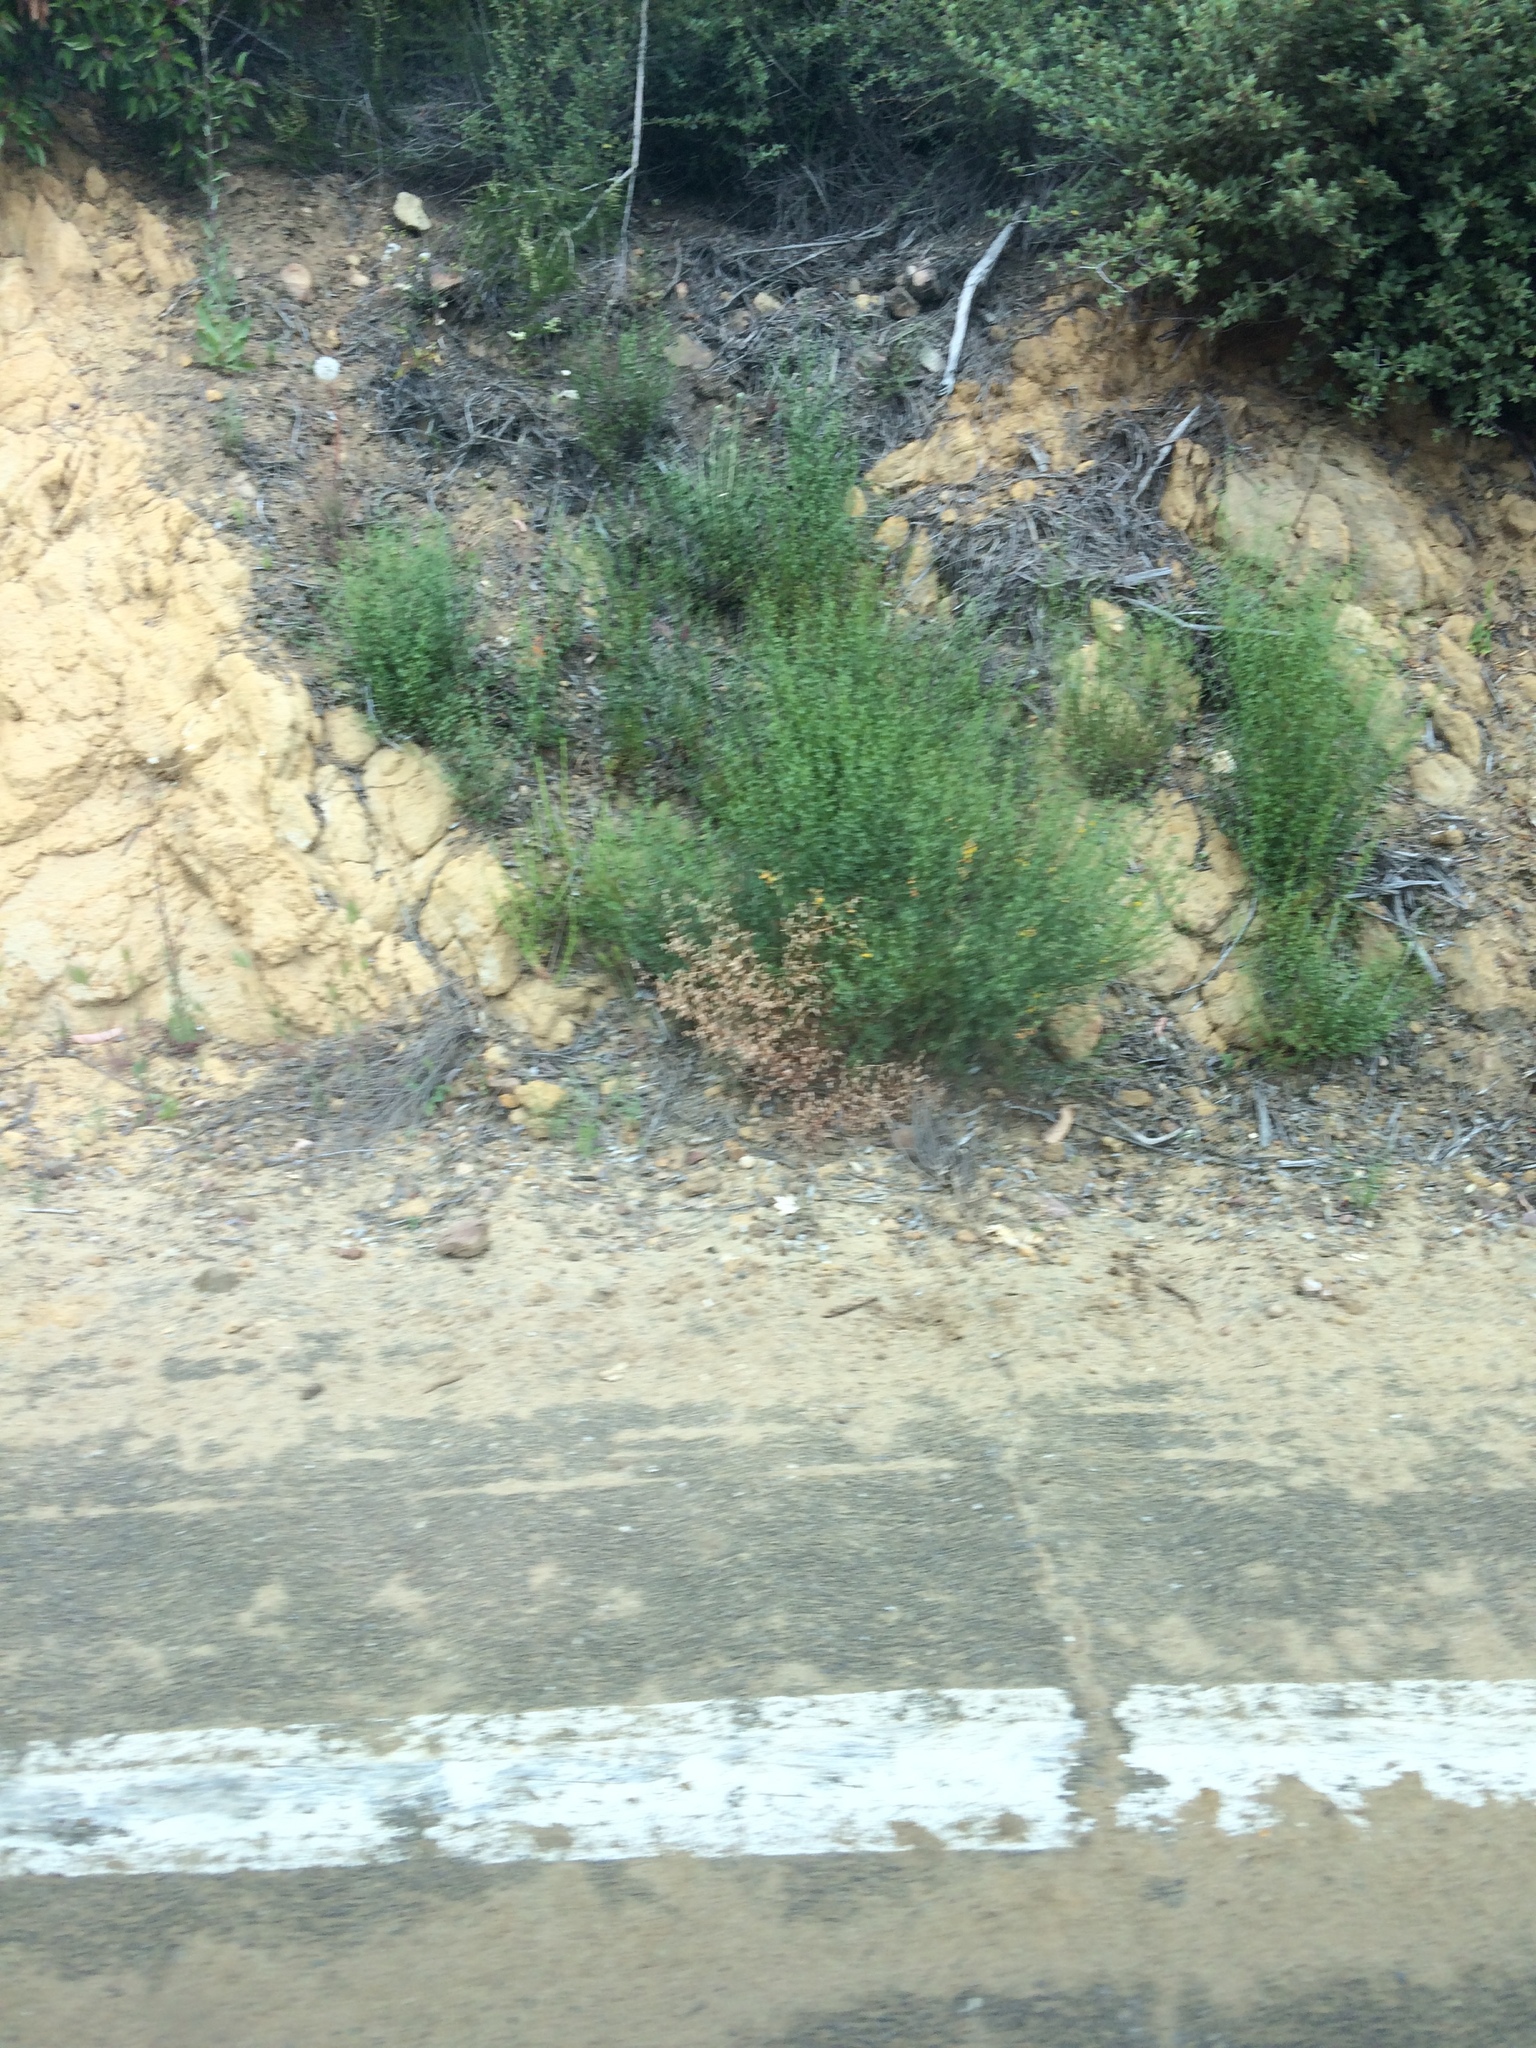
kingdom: Plantae
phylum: Tracheophyta
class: Magnoliopsida
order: Fabales
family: Fabaceae
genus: Acmispon
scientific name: Acmispon glaber
